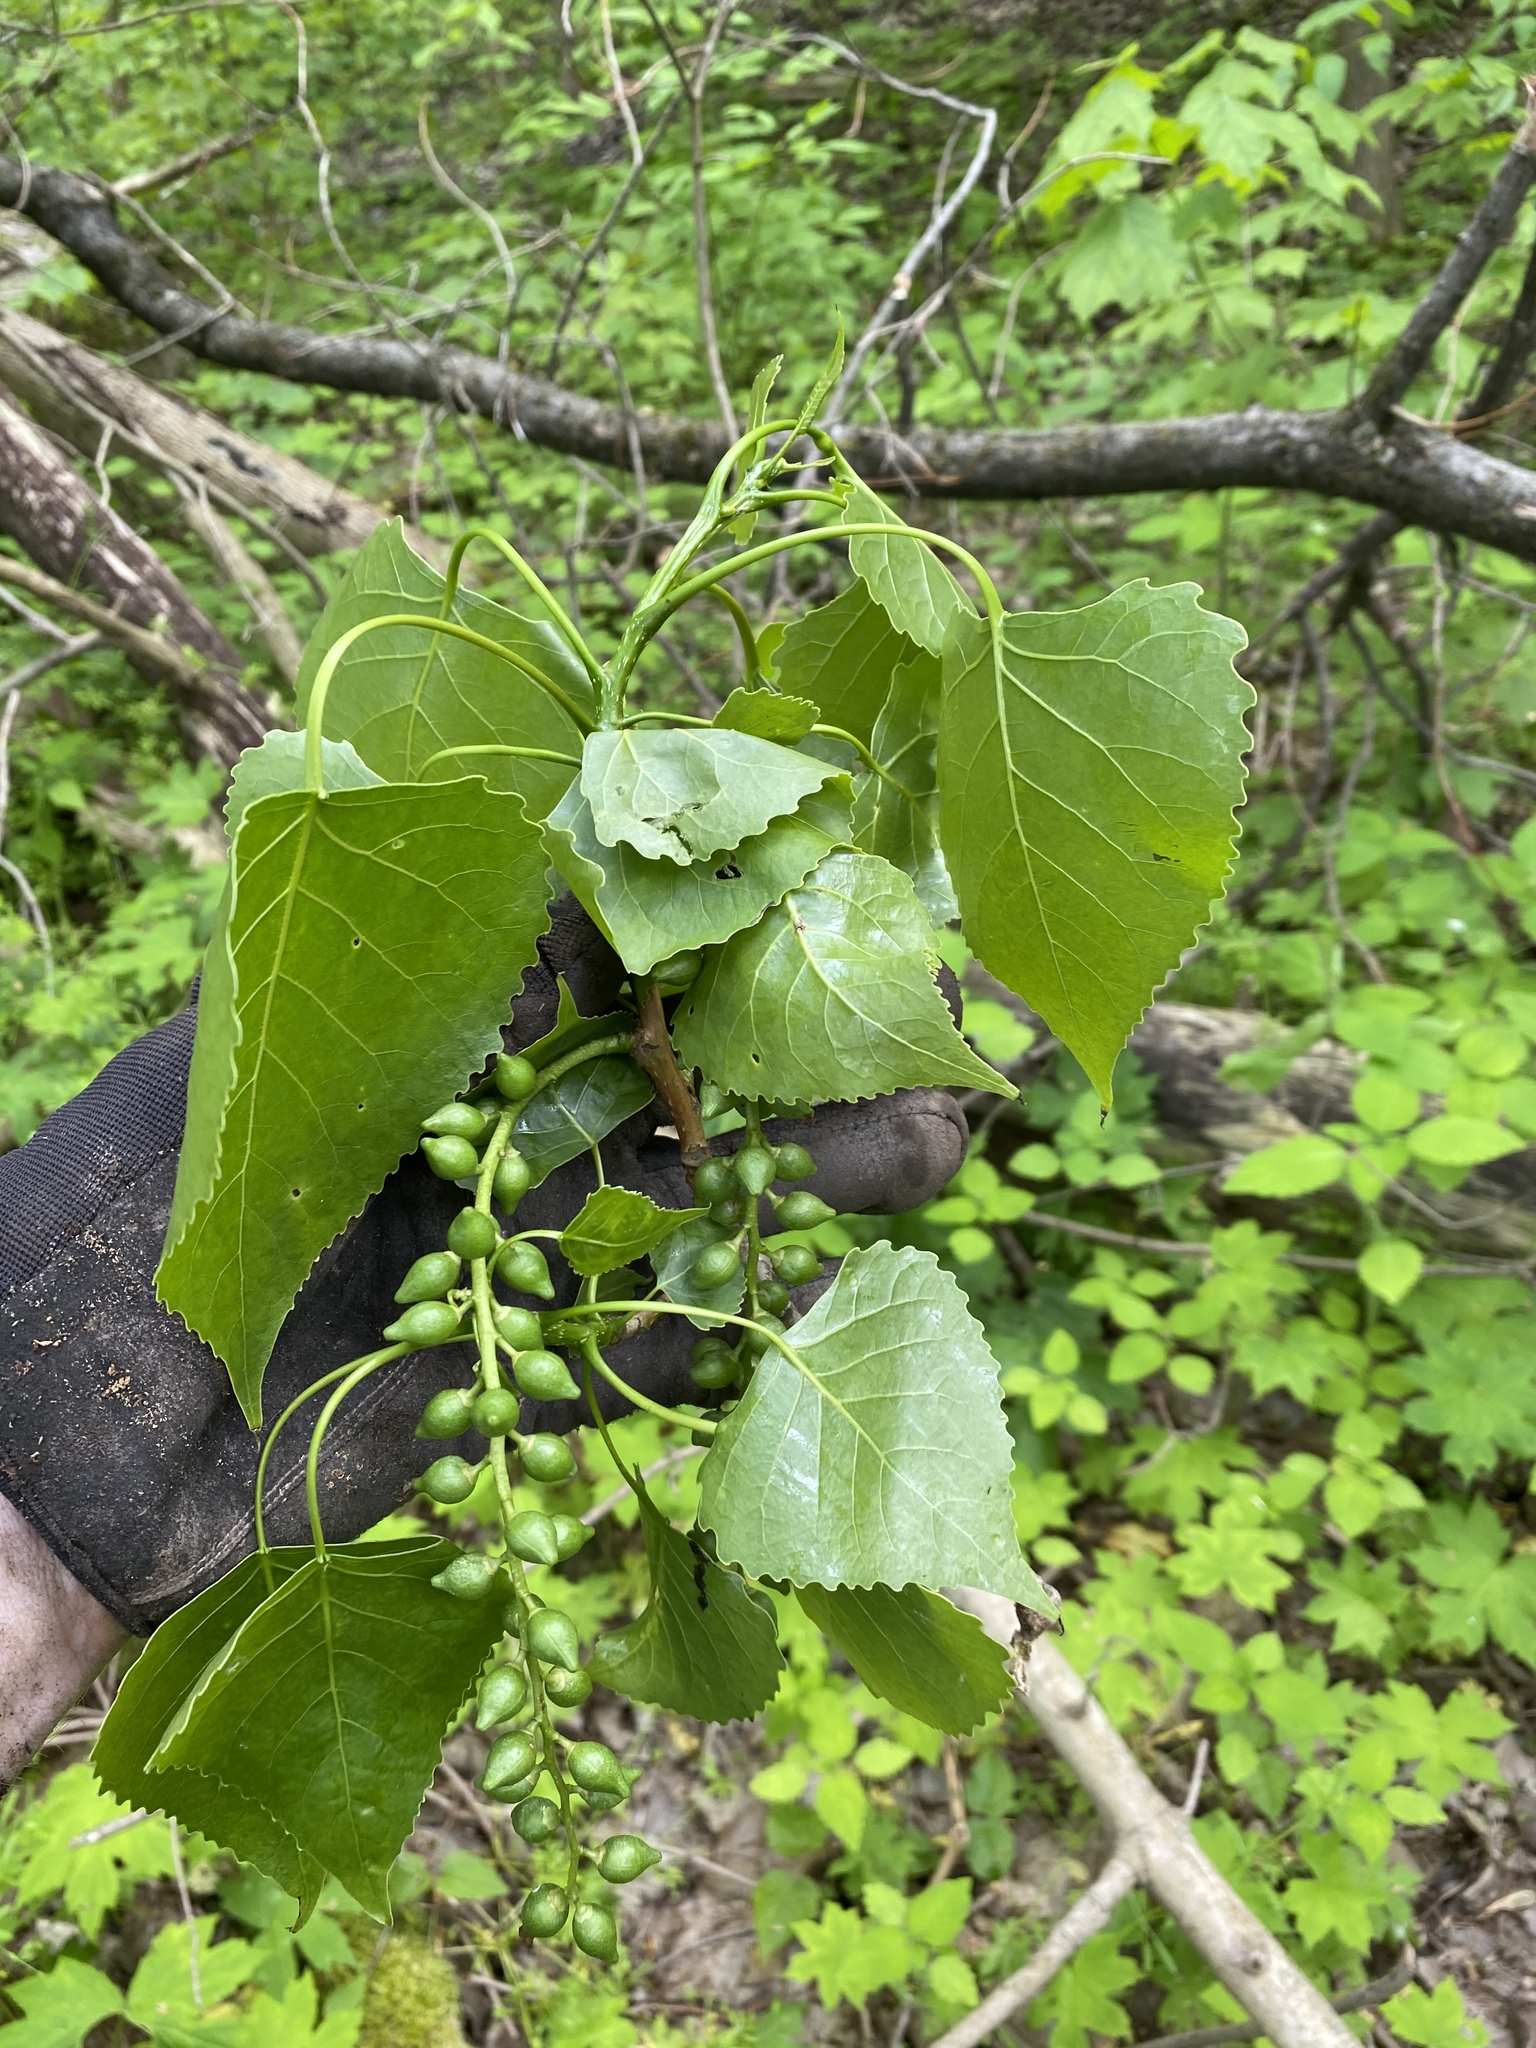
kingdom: Plantae
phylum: Tracheophyta
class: Magnoliopsida
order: Malpighiales
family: Salicaceae
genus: Populus
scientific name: Populus deltoides
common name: Eastern cottonwood
